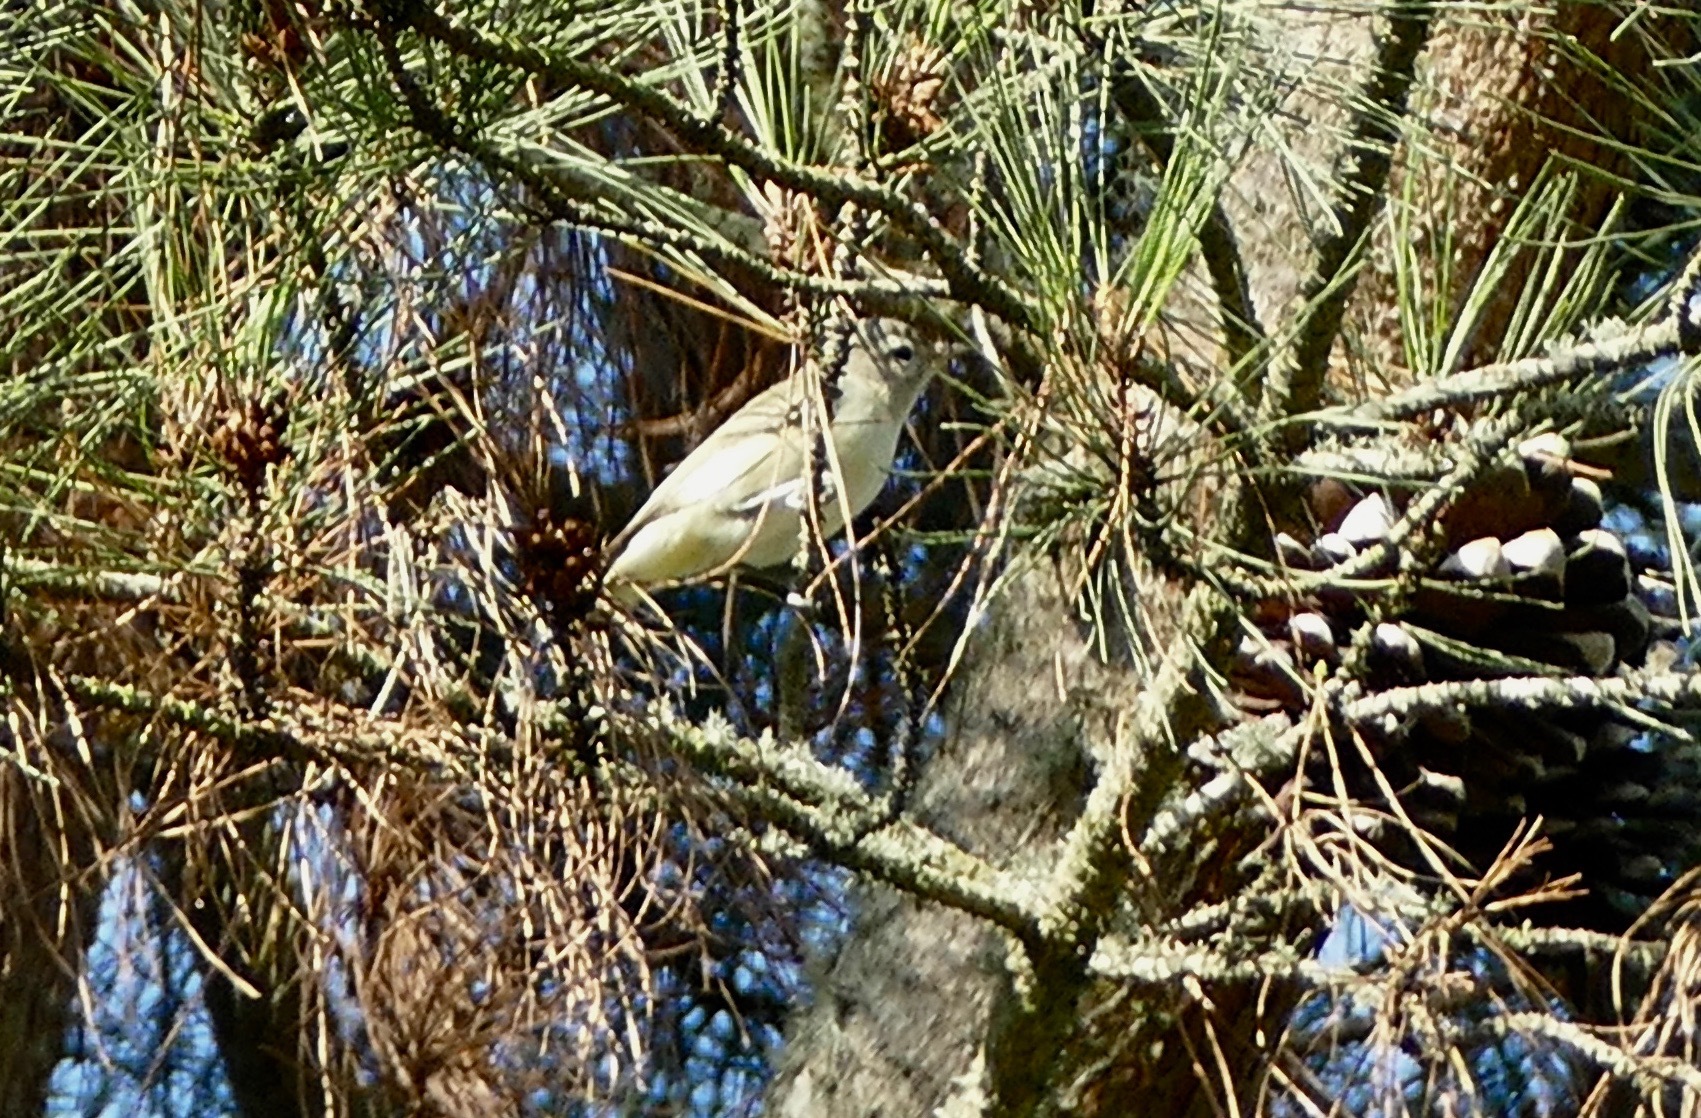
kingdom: Animalia
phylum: Chordata
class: Aves
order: Passeriformes
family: Vireonidae
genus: Vireo
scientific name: Vireo gilvus
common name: Warbling vireo
